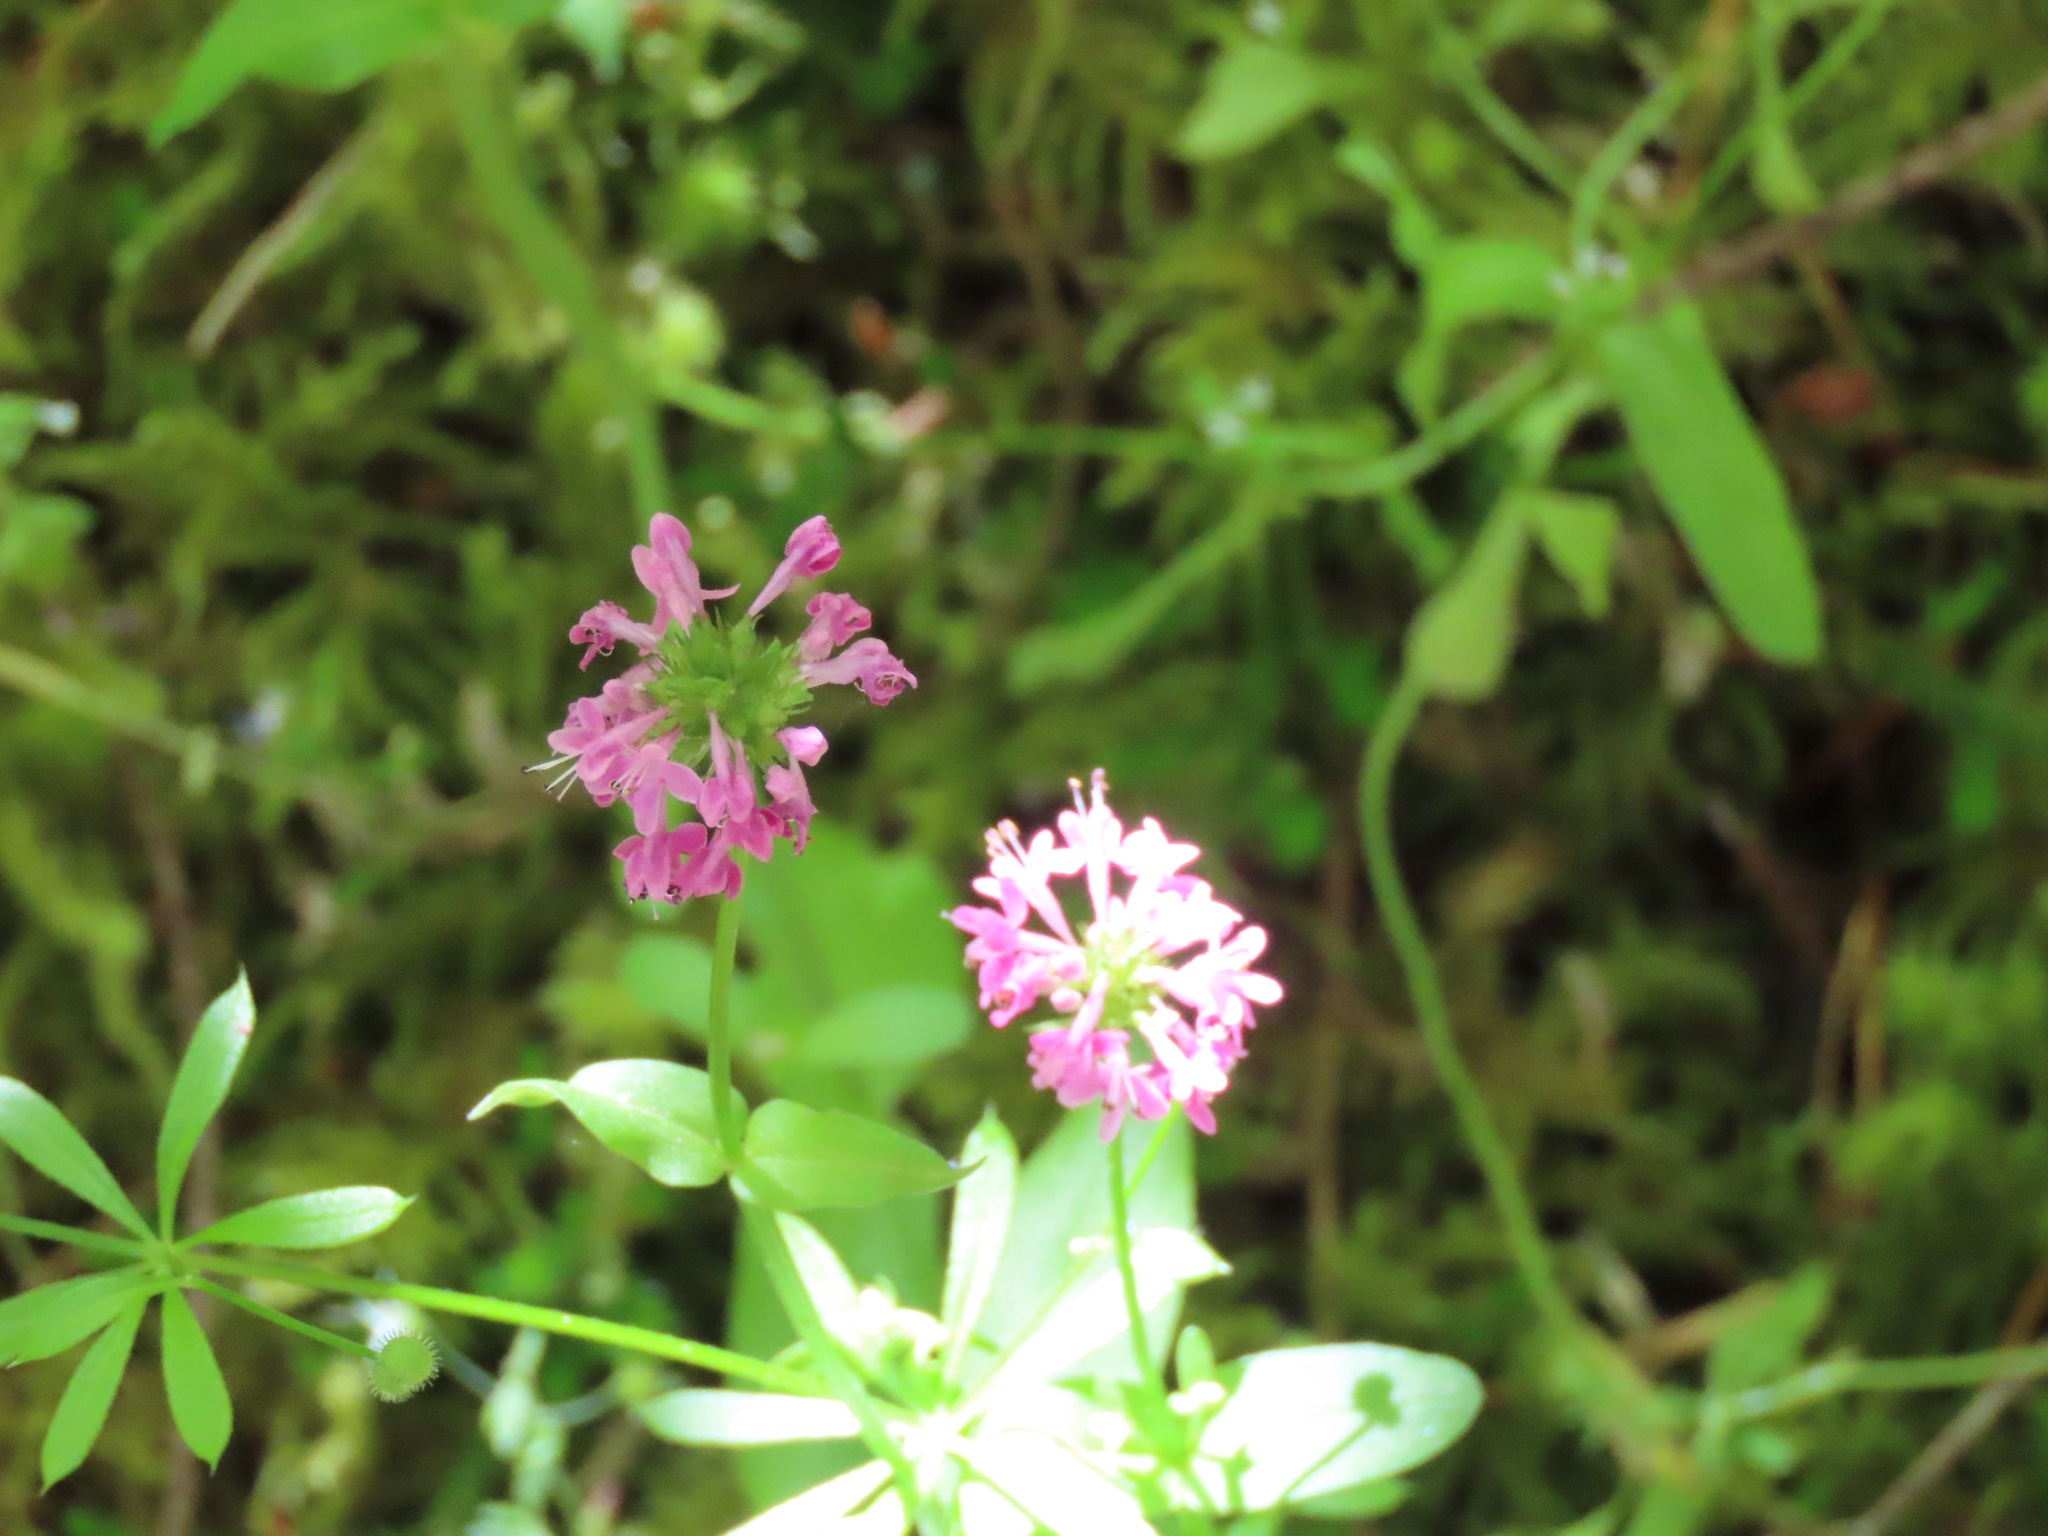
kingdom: Plantae
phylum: Tracheophyta
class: Magnoliopsida
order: Dipsacales
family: Caprifoliaceae
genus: Plectritis
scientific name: Plectritis congesta
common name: Pink plectritis
